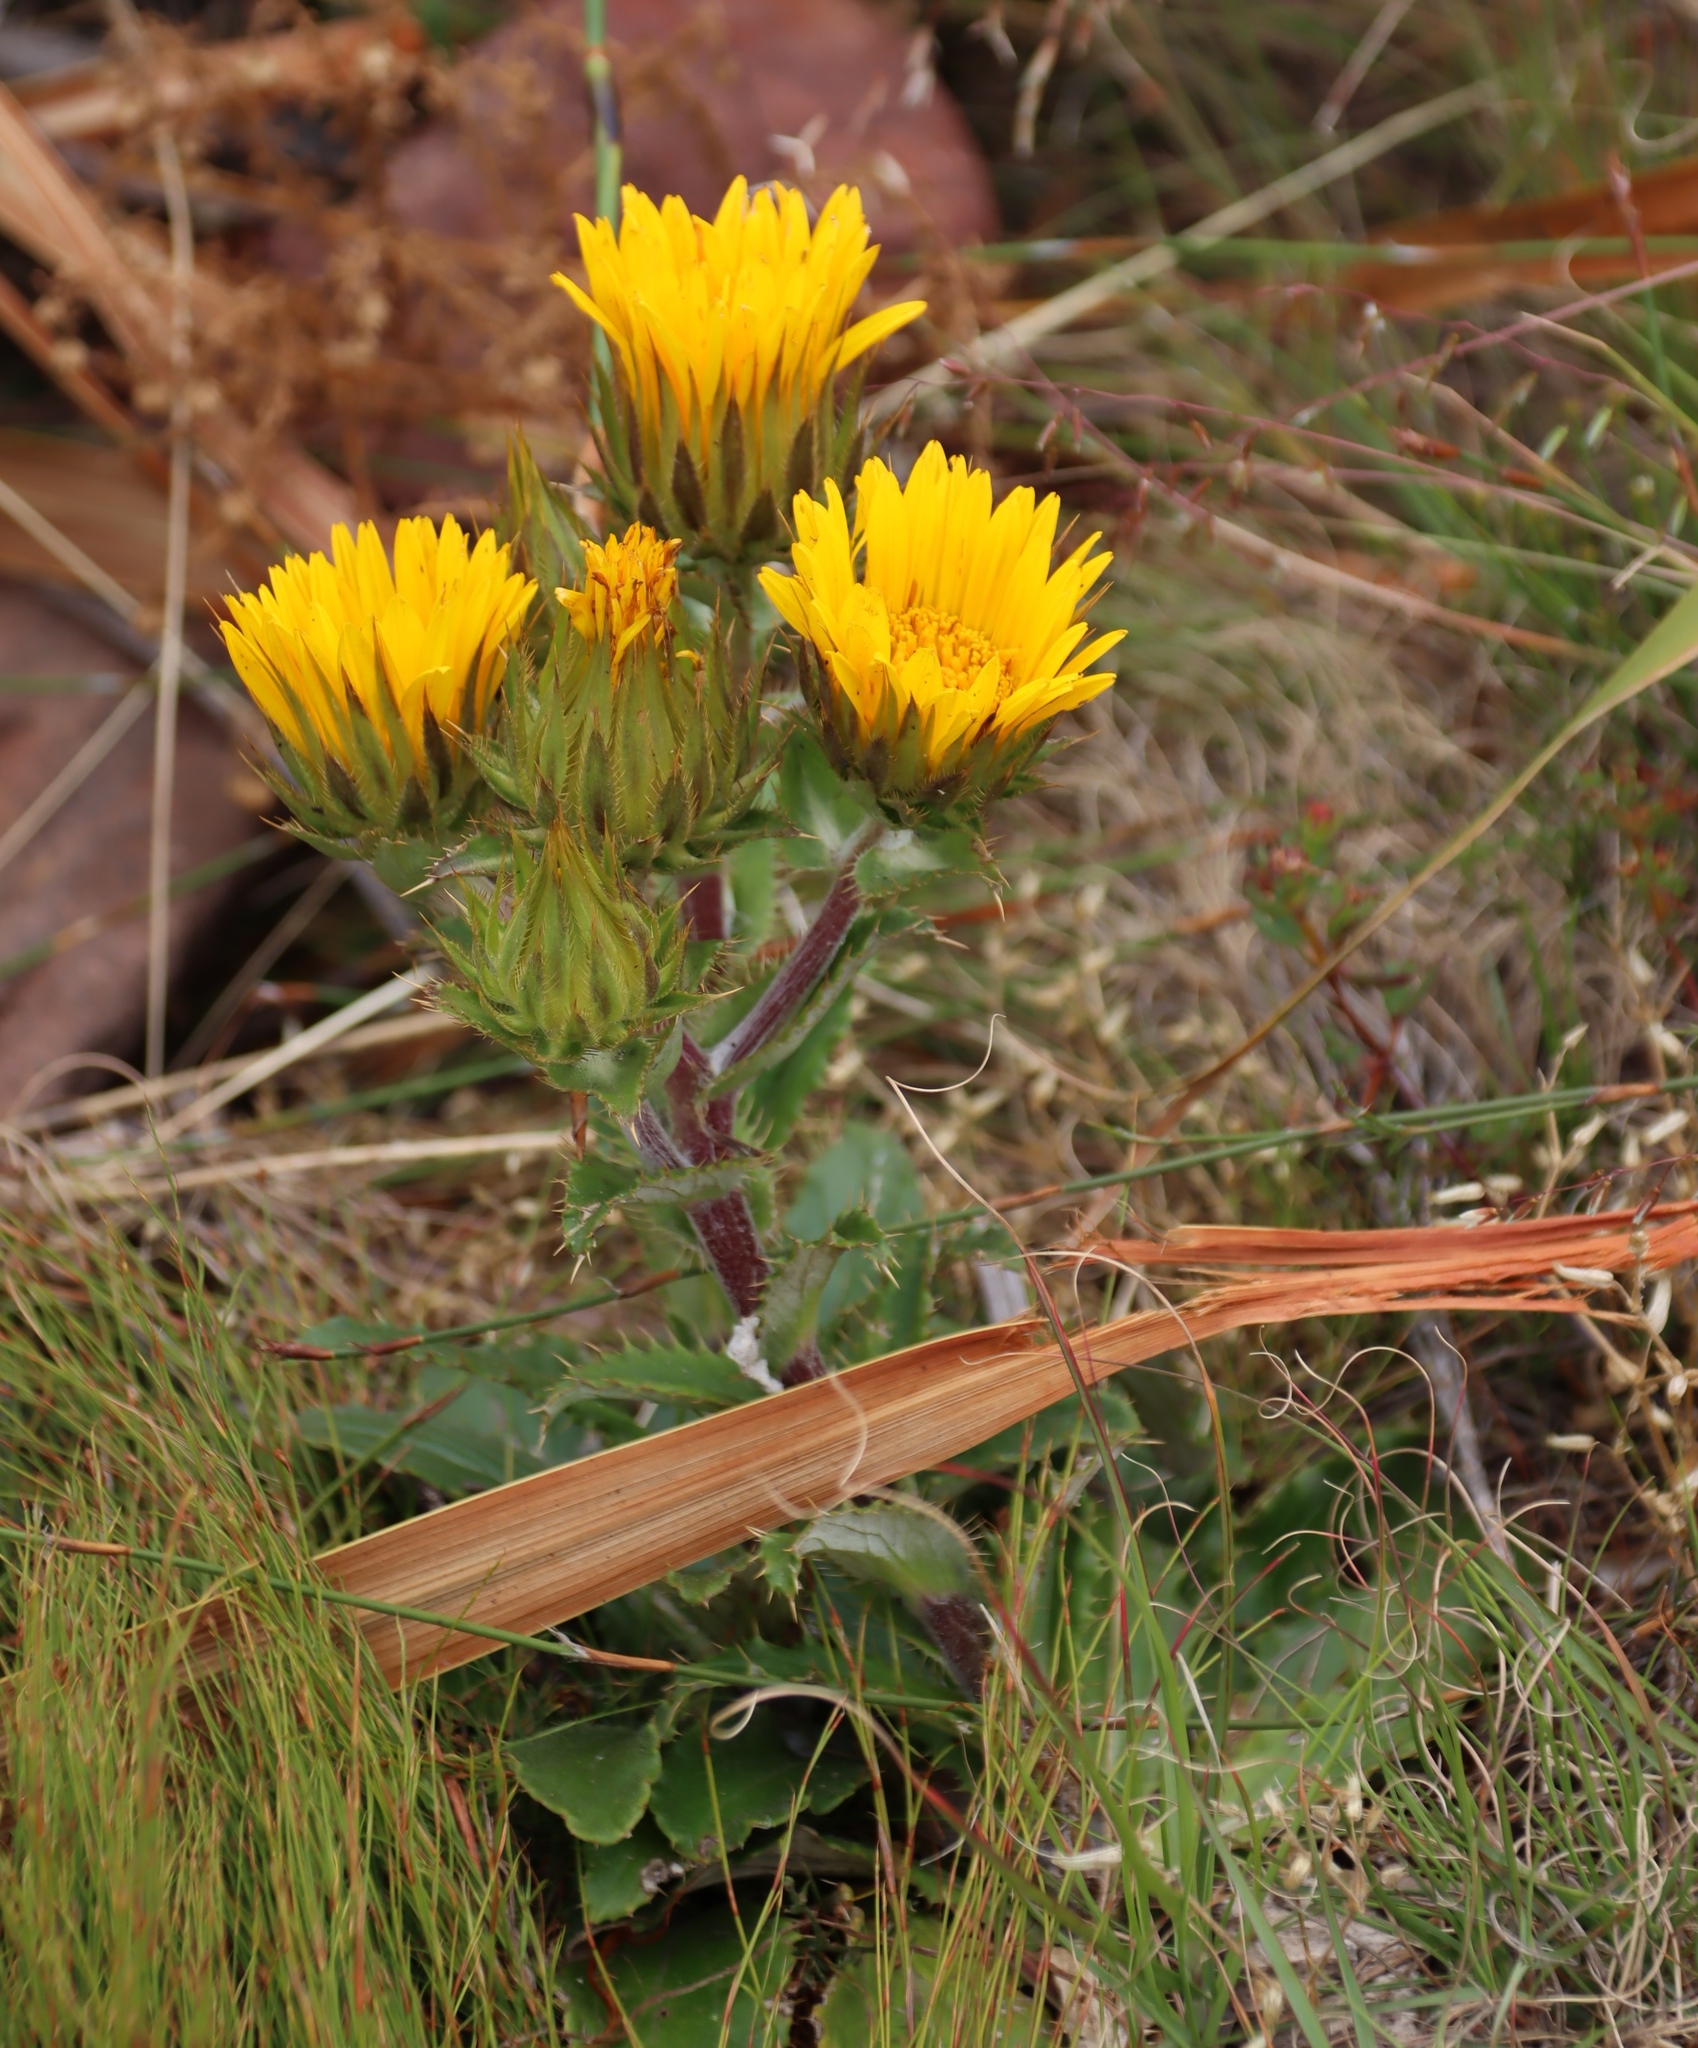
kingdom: Plantae
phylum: Tracheophyta
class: Magnoliopsida
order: Asterales
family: Asteraceae
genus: Berkheya
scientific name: Berkheya armata
